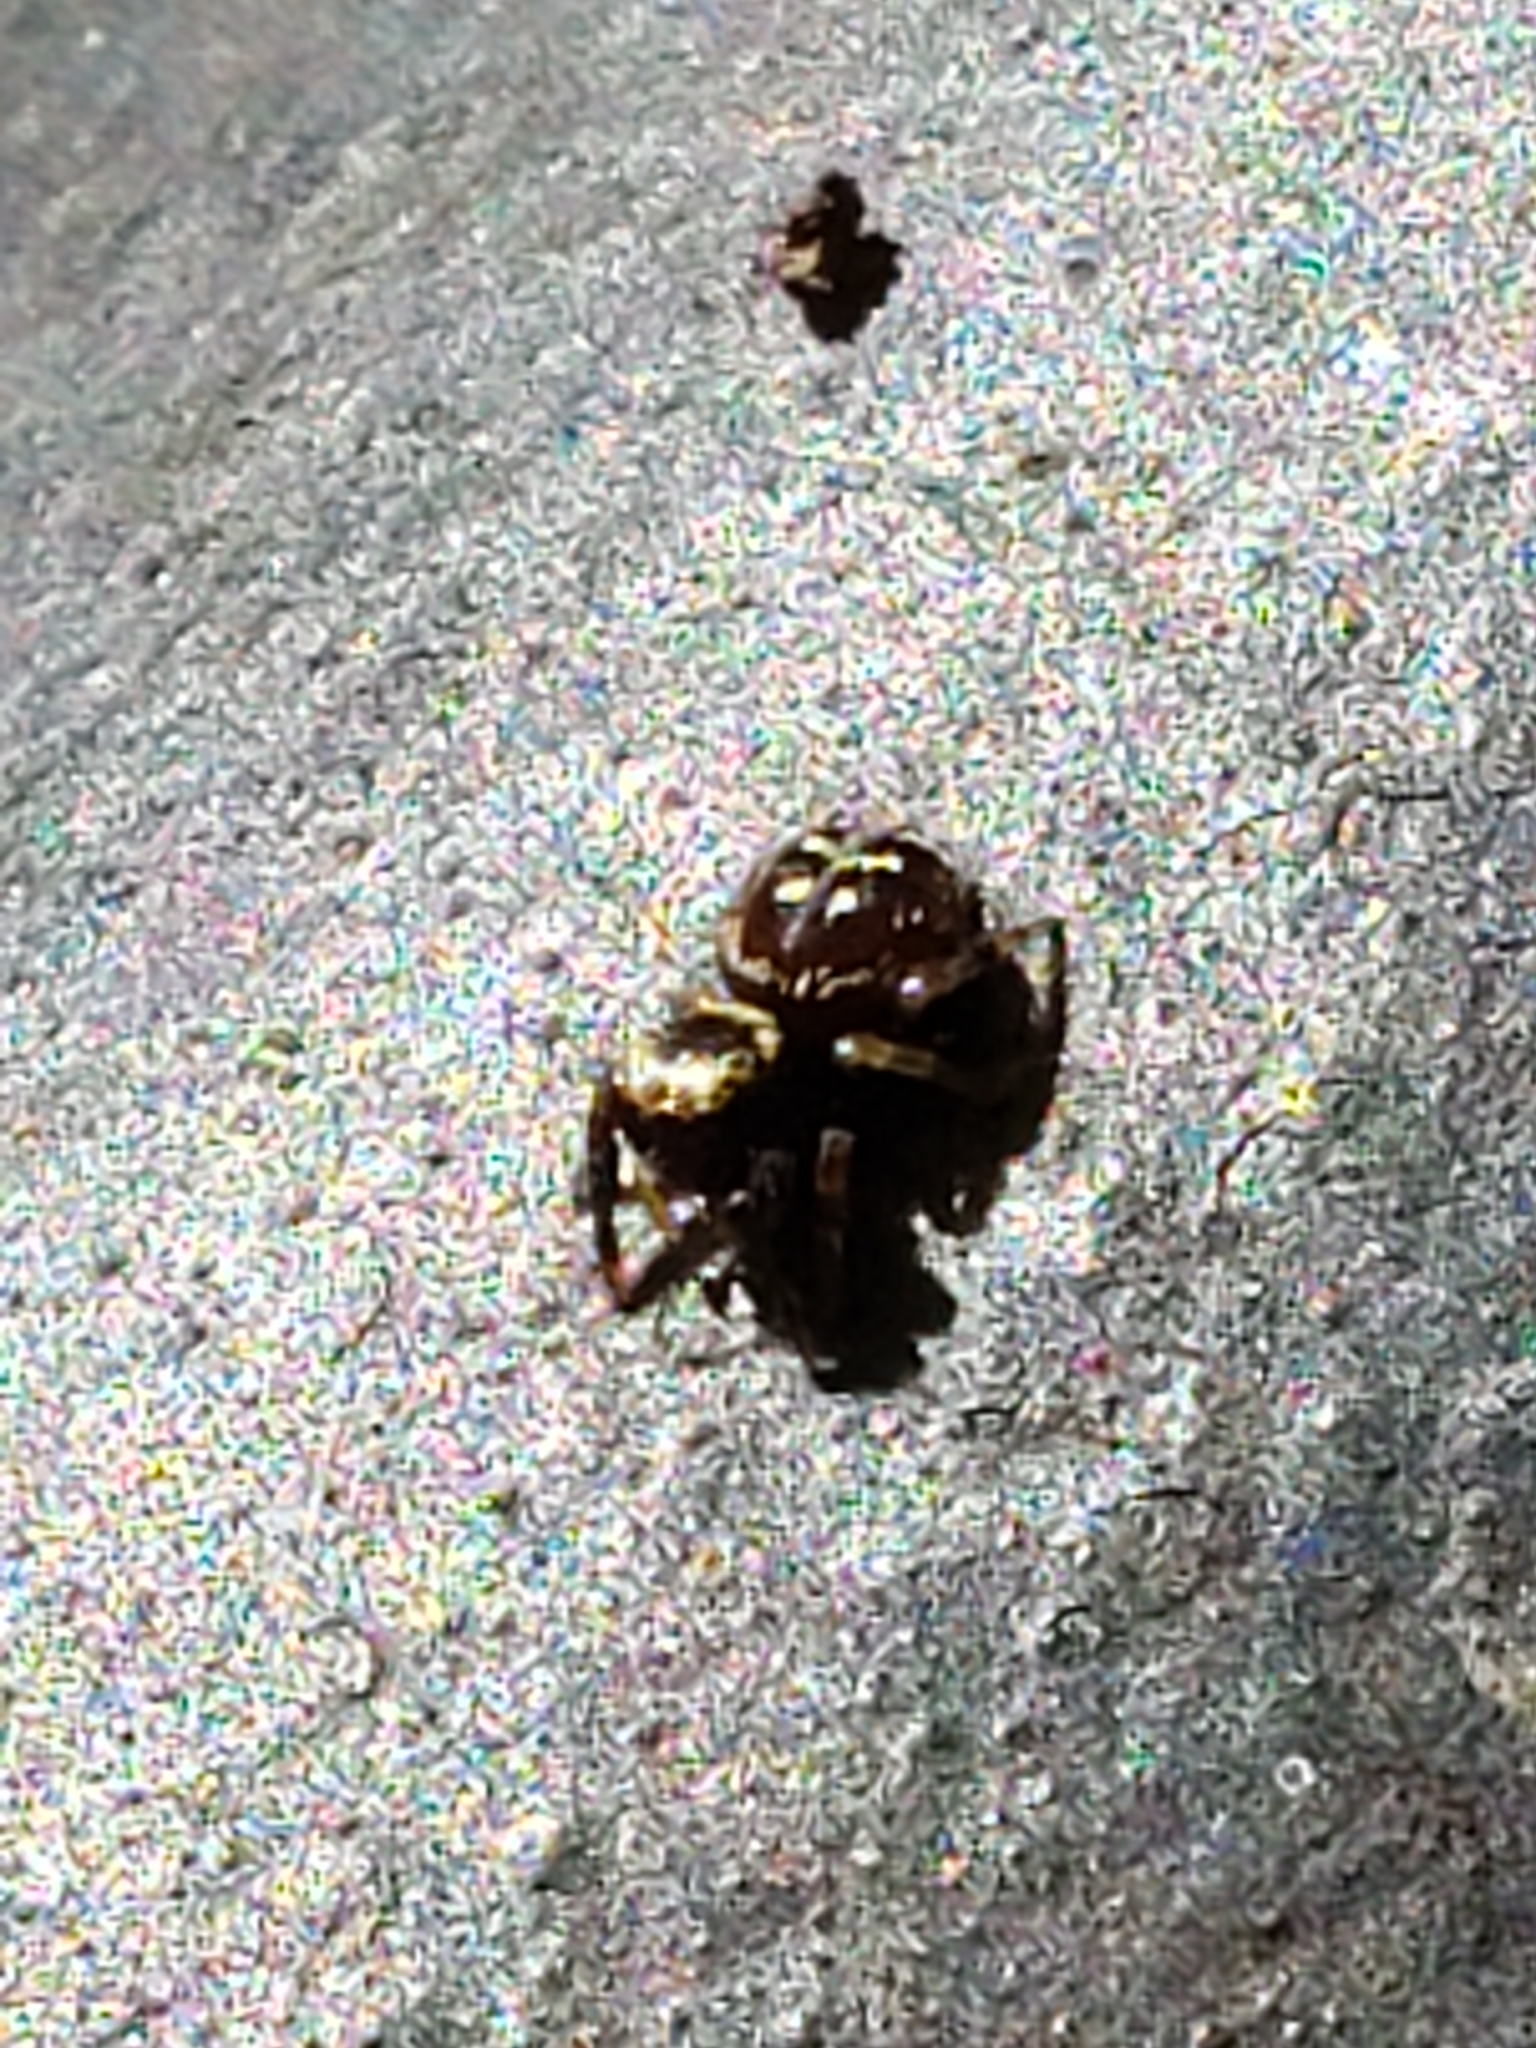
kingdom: Animalia
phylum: Arthropoda
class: Arachnida
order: Araneae
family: Salticidae
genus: Paraphidippus
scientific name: Paraphidippus aurantius
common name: Jumping spiders
